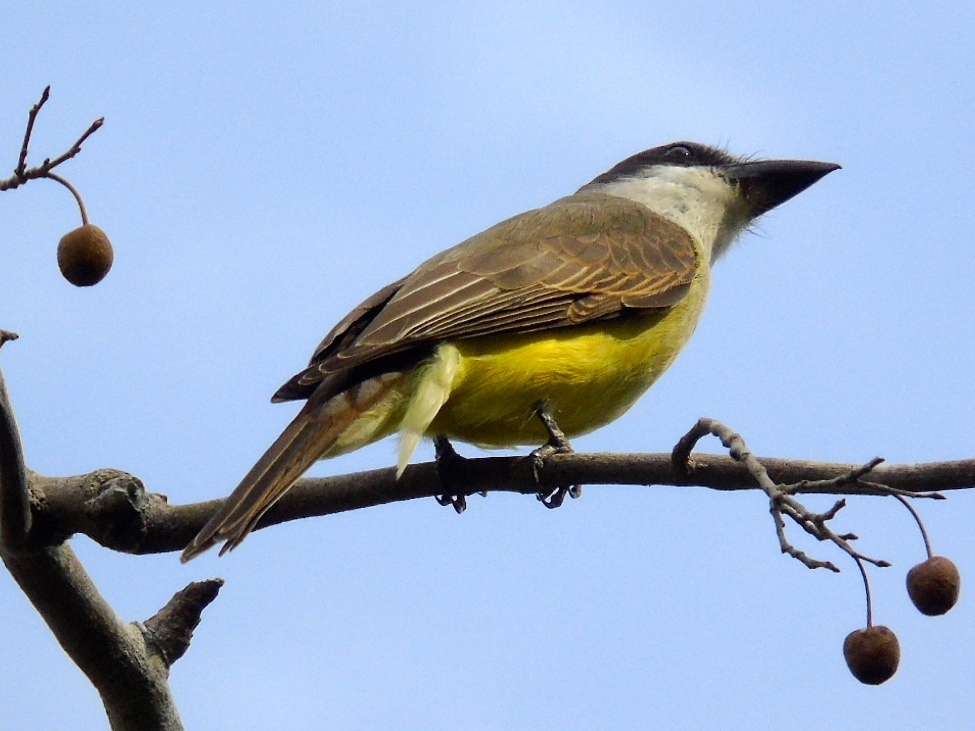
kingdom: Animalia
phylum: Chordata
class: Aves
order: Passeriformes
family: Tyrannidae
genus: Tyrannus
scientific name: Tyrannus crassirostris
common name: Thick-billed kingbird
